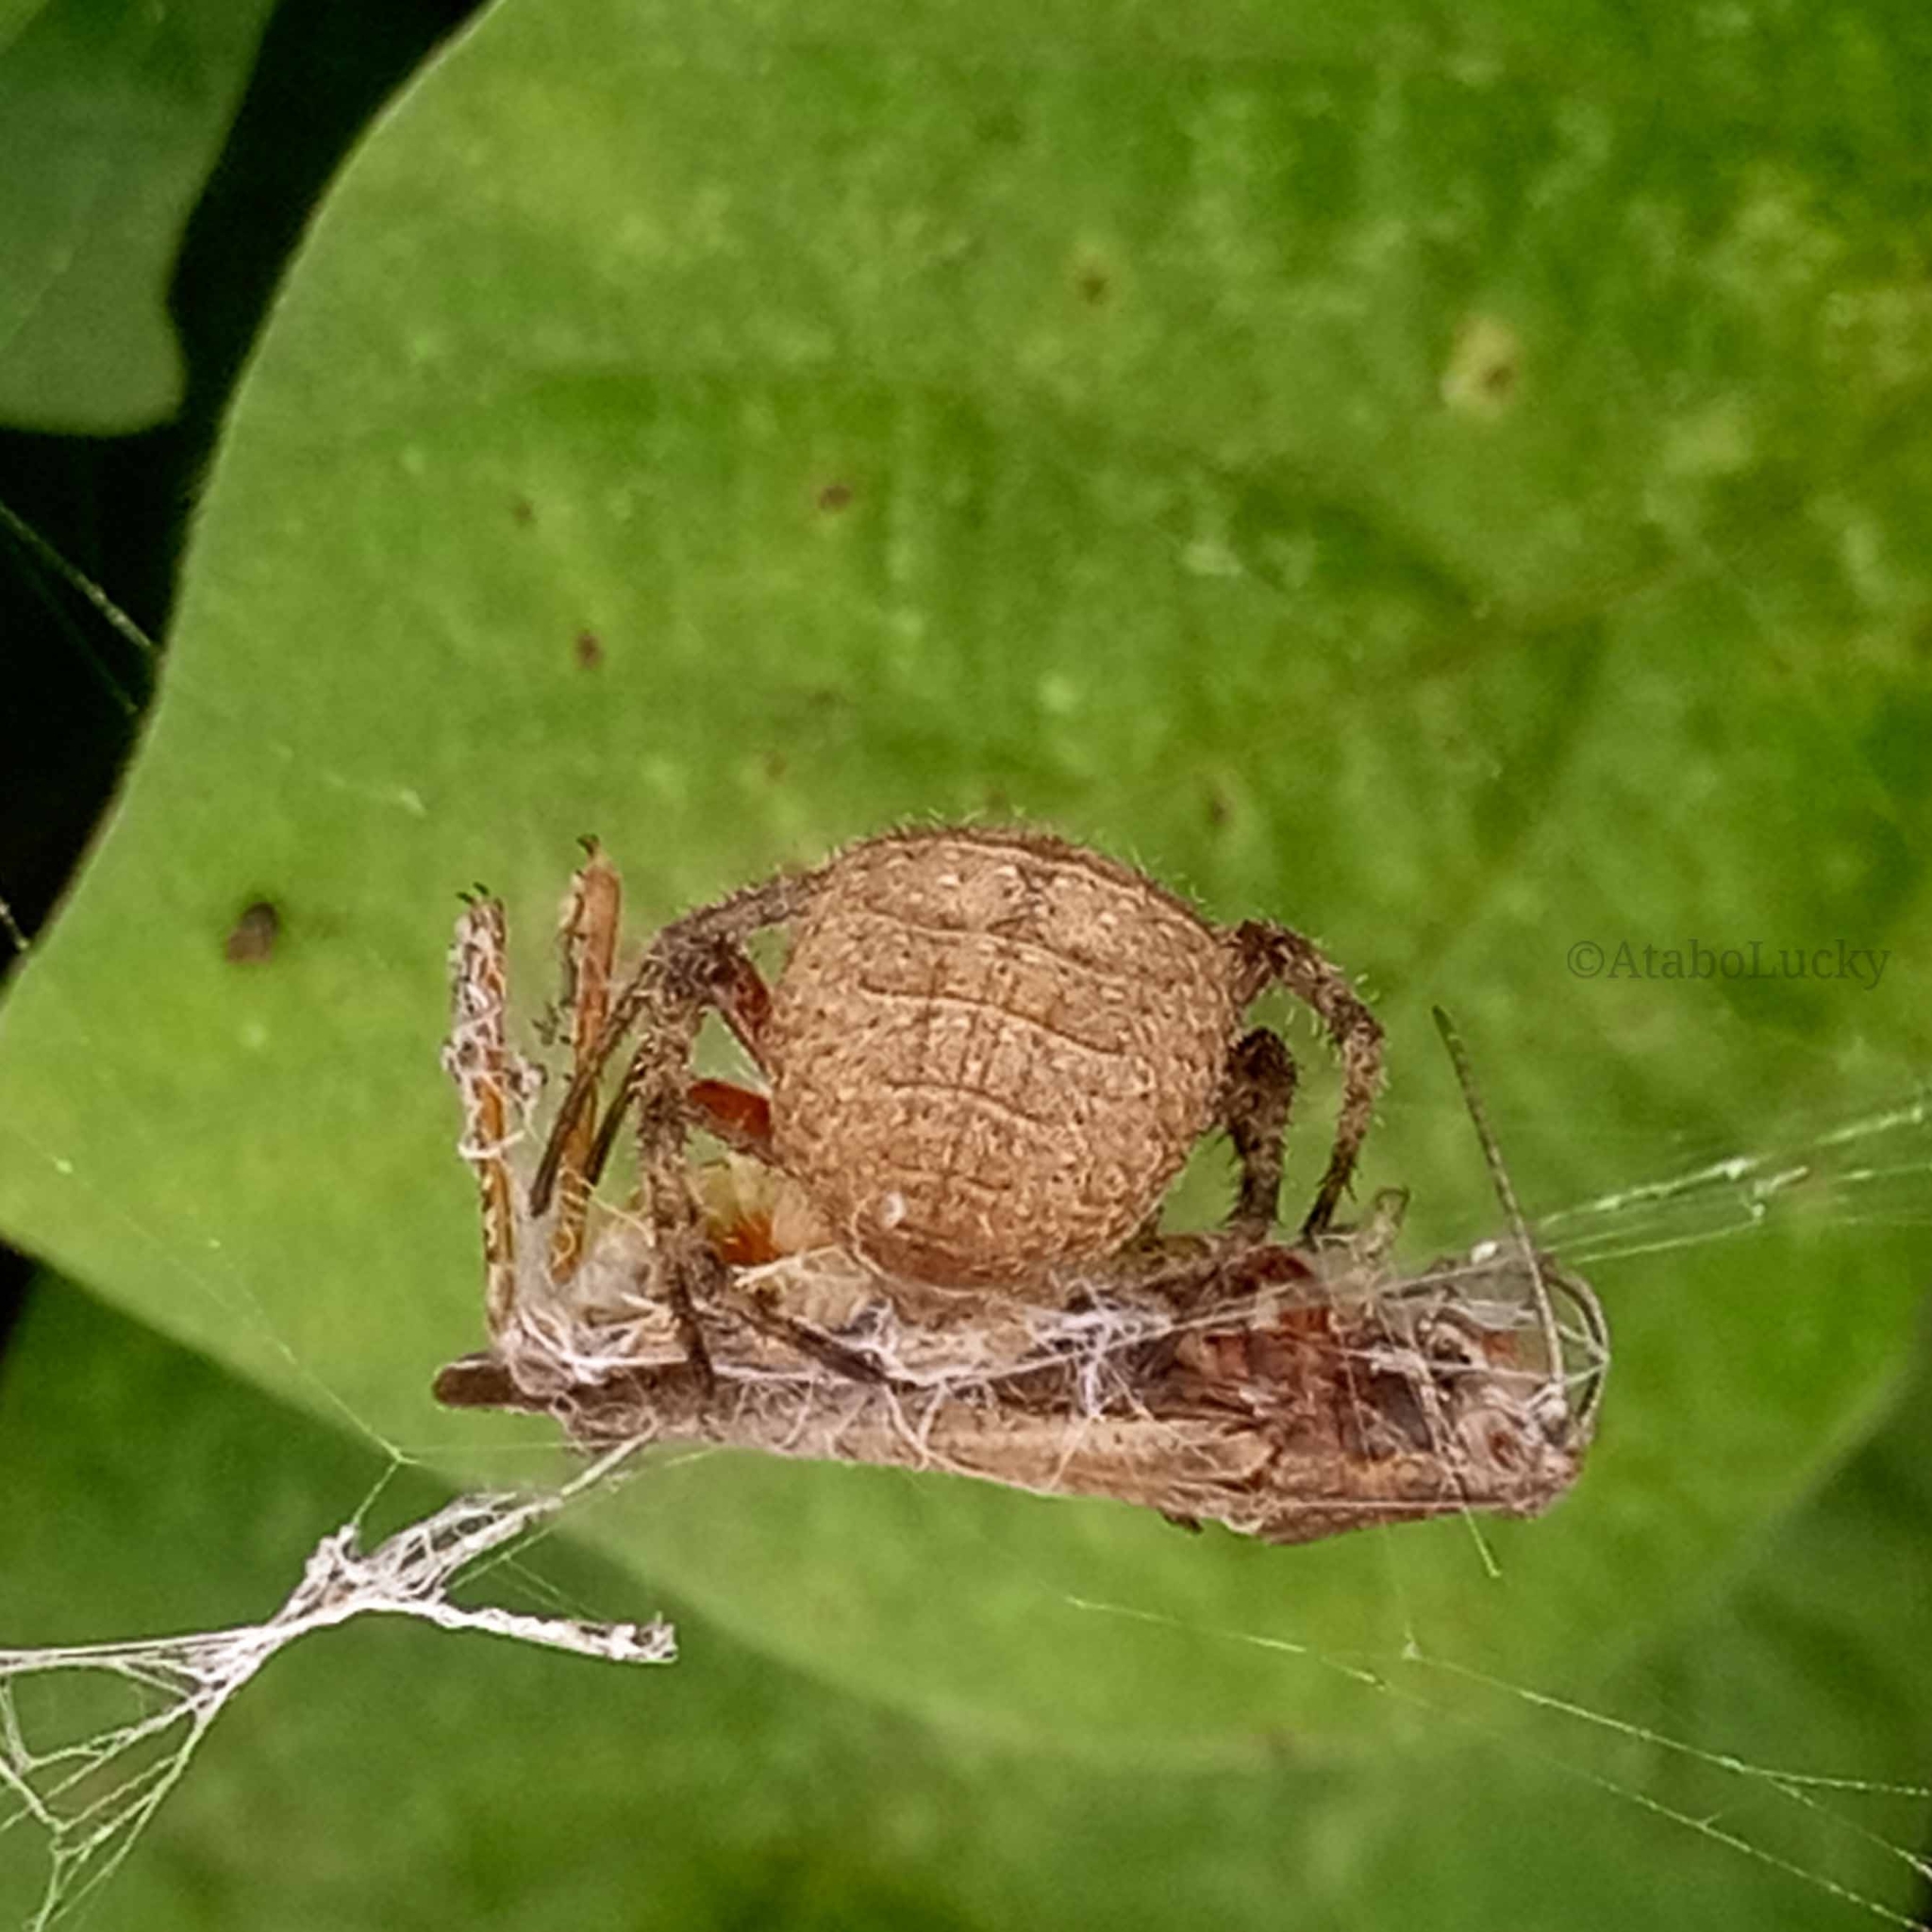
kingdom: Animalia
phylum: Arthropoda
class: Arachnida
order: Araneae
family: Araneidae
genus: Pararaneus
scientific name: Pararaneus cyrtoscapus
